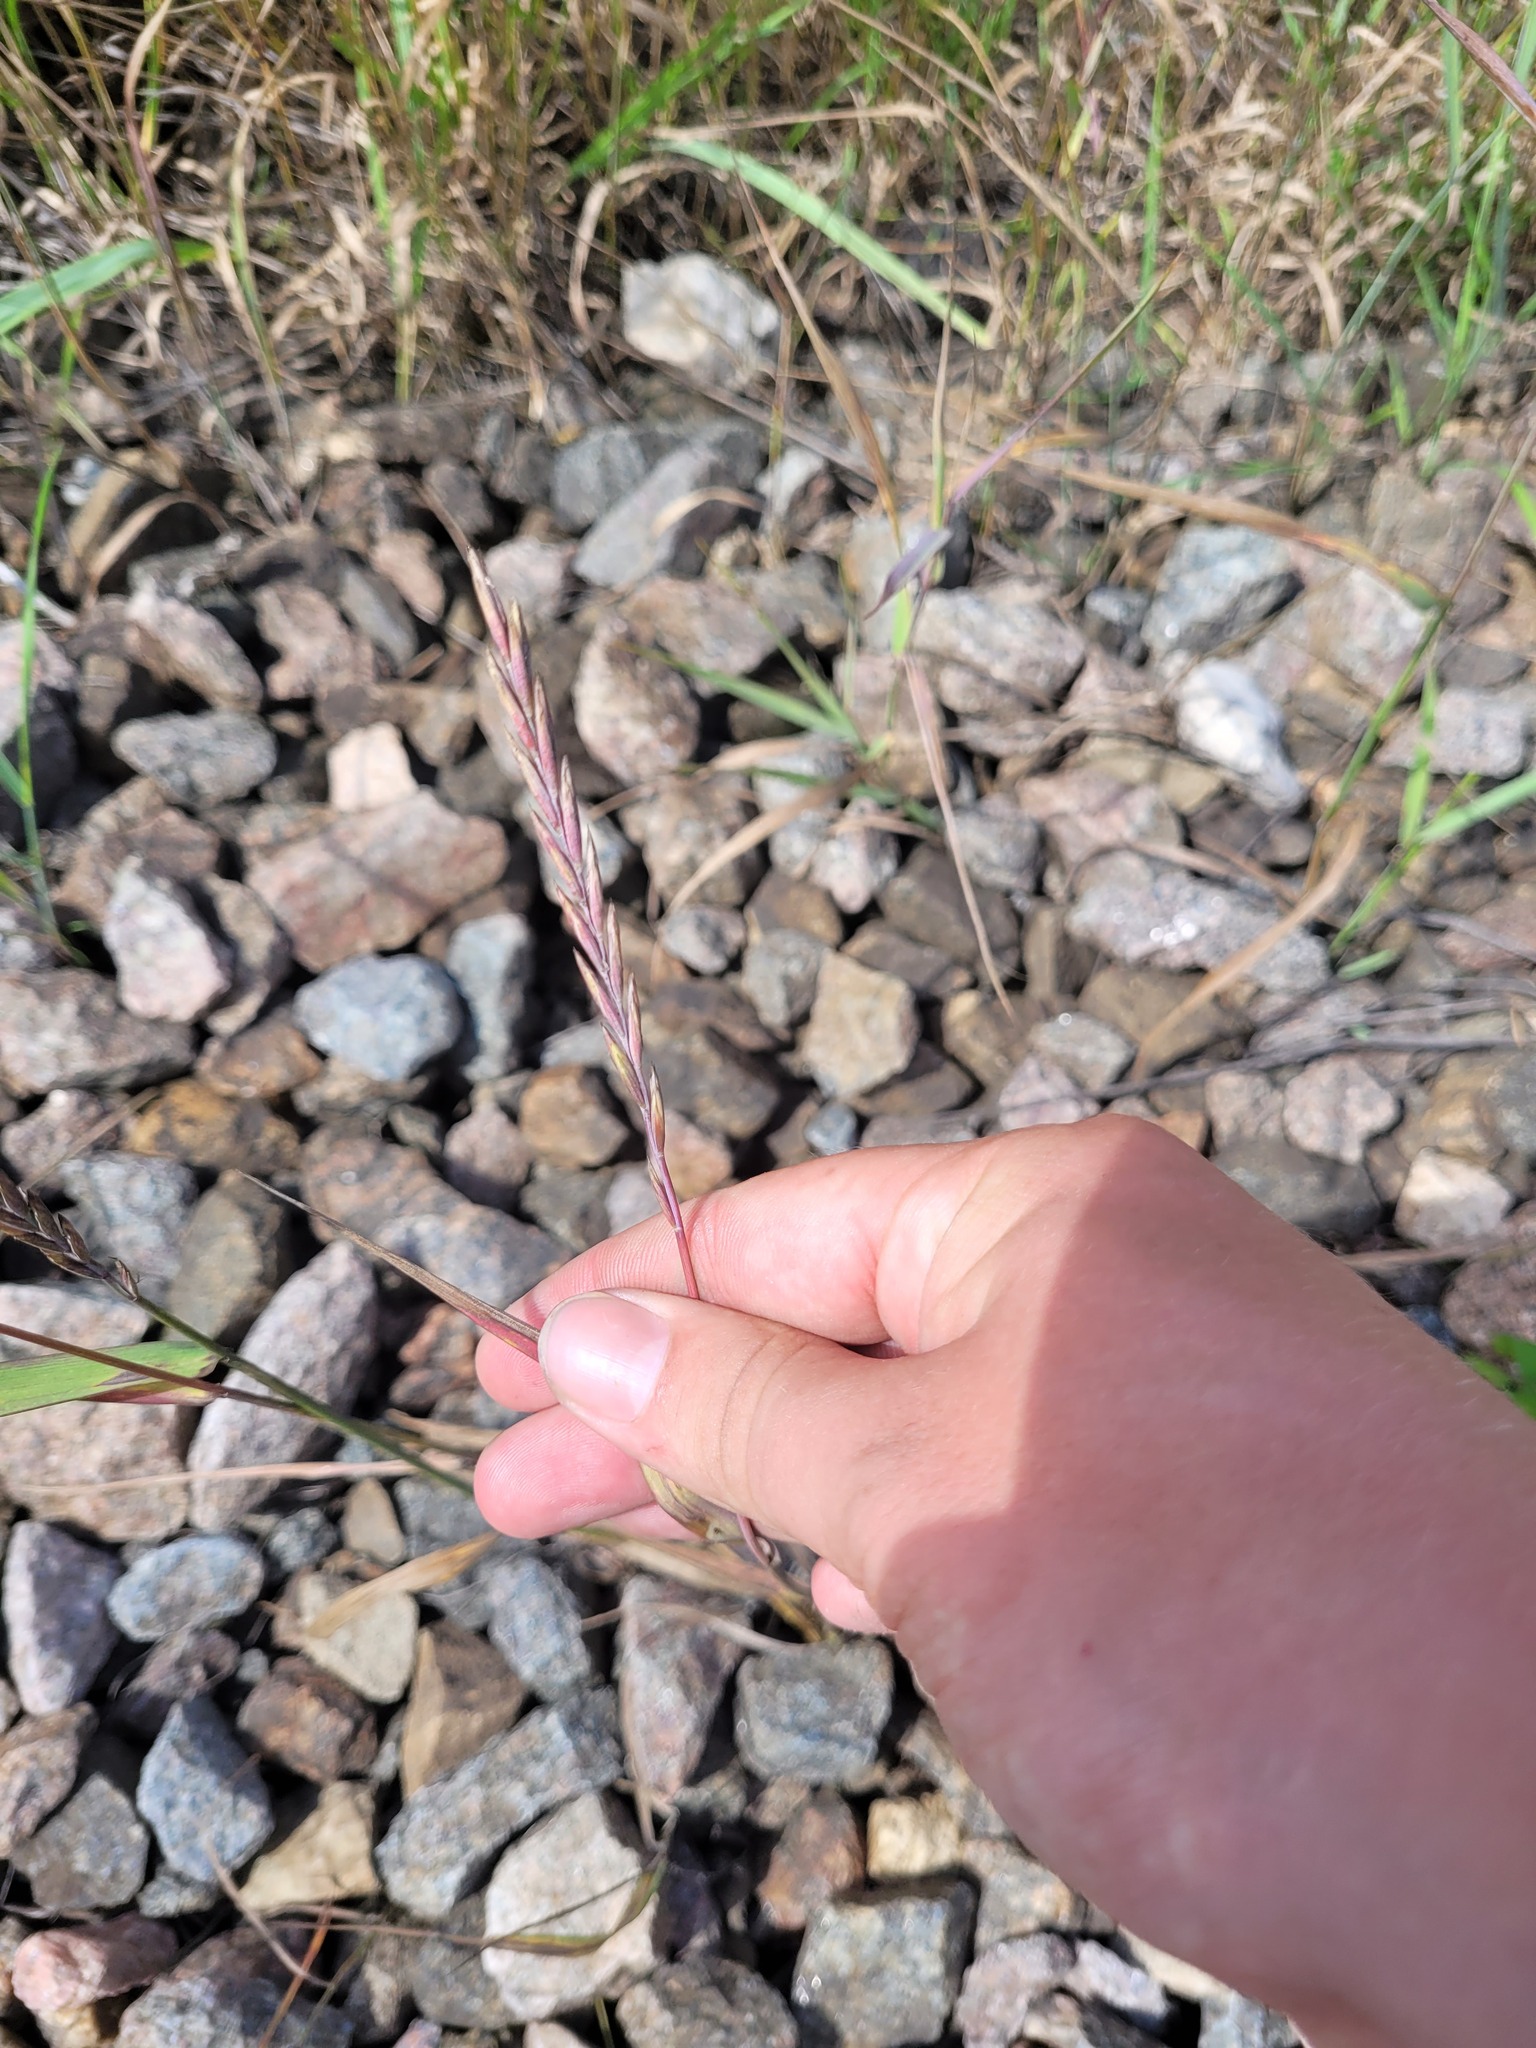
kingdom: Plantae
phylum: Tracheophyta
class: Liliopsida
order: Poales
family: Poaceae
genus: Elymus
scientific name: Elymus repens
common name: Quackgrass
